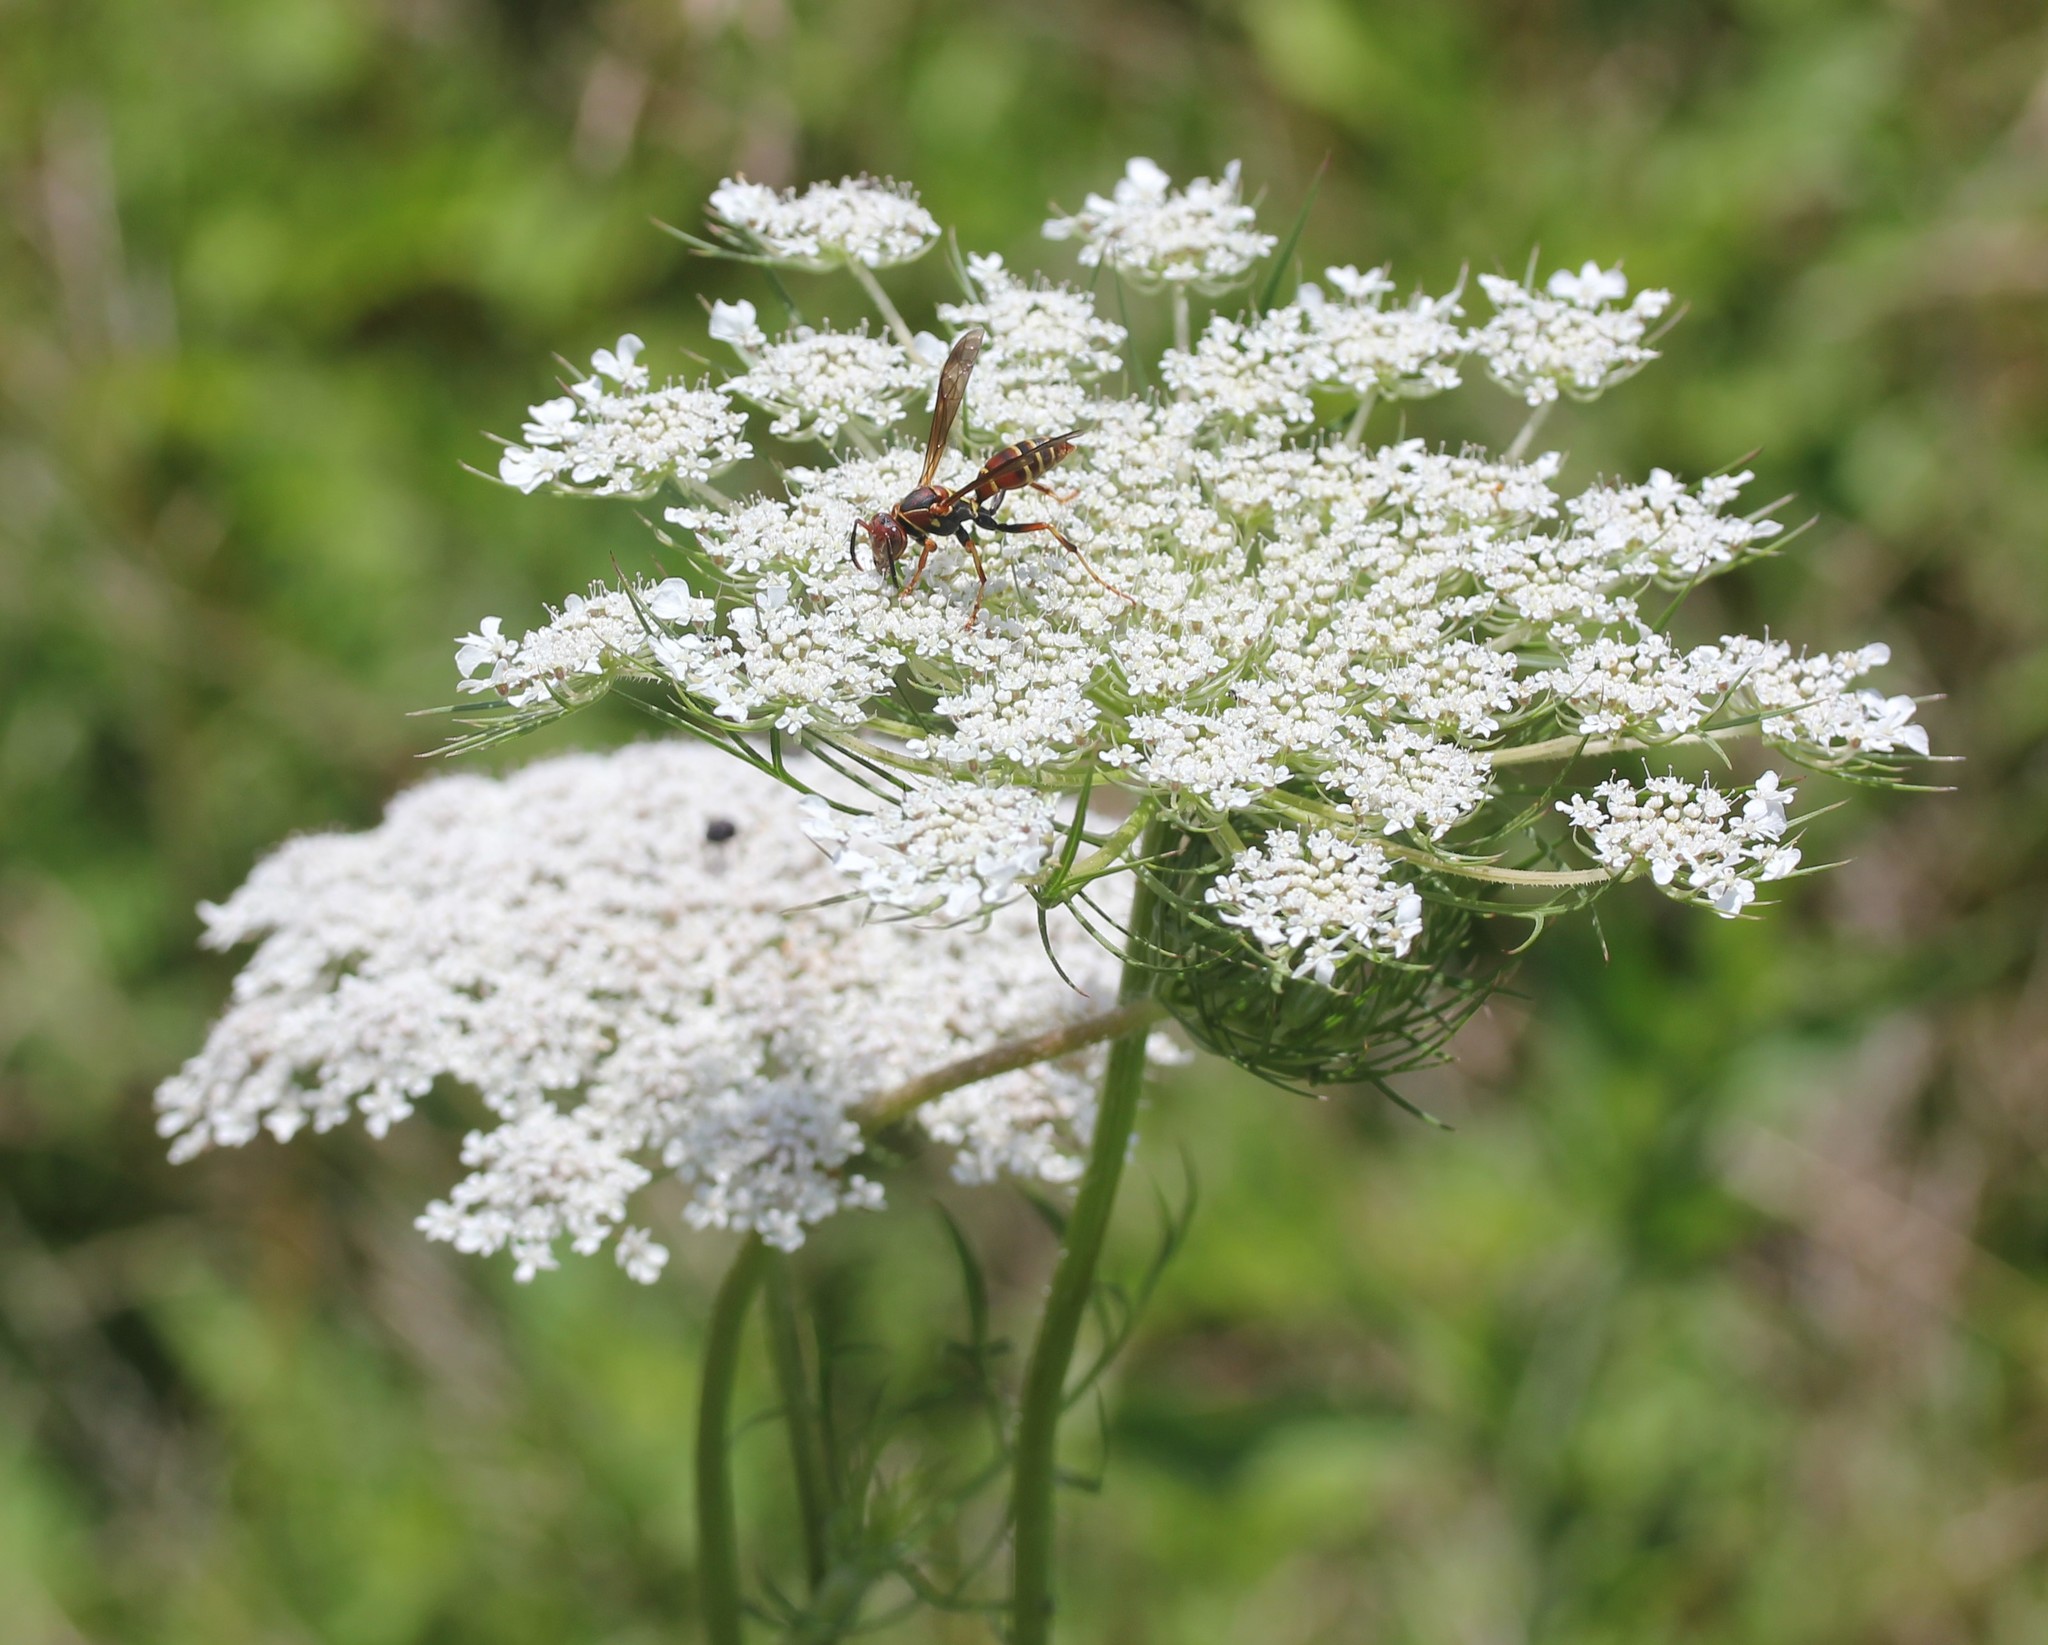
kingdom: Plantae
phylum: Tracheophyta
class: Magnoliopsida
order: Apiales
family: Apiaceae
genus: Daucus
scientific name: Daucus carota
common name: Wild carrot
